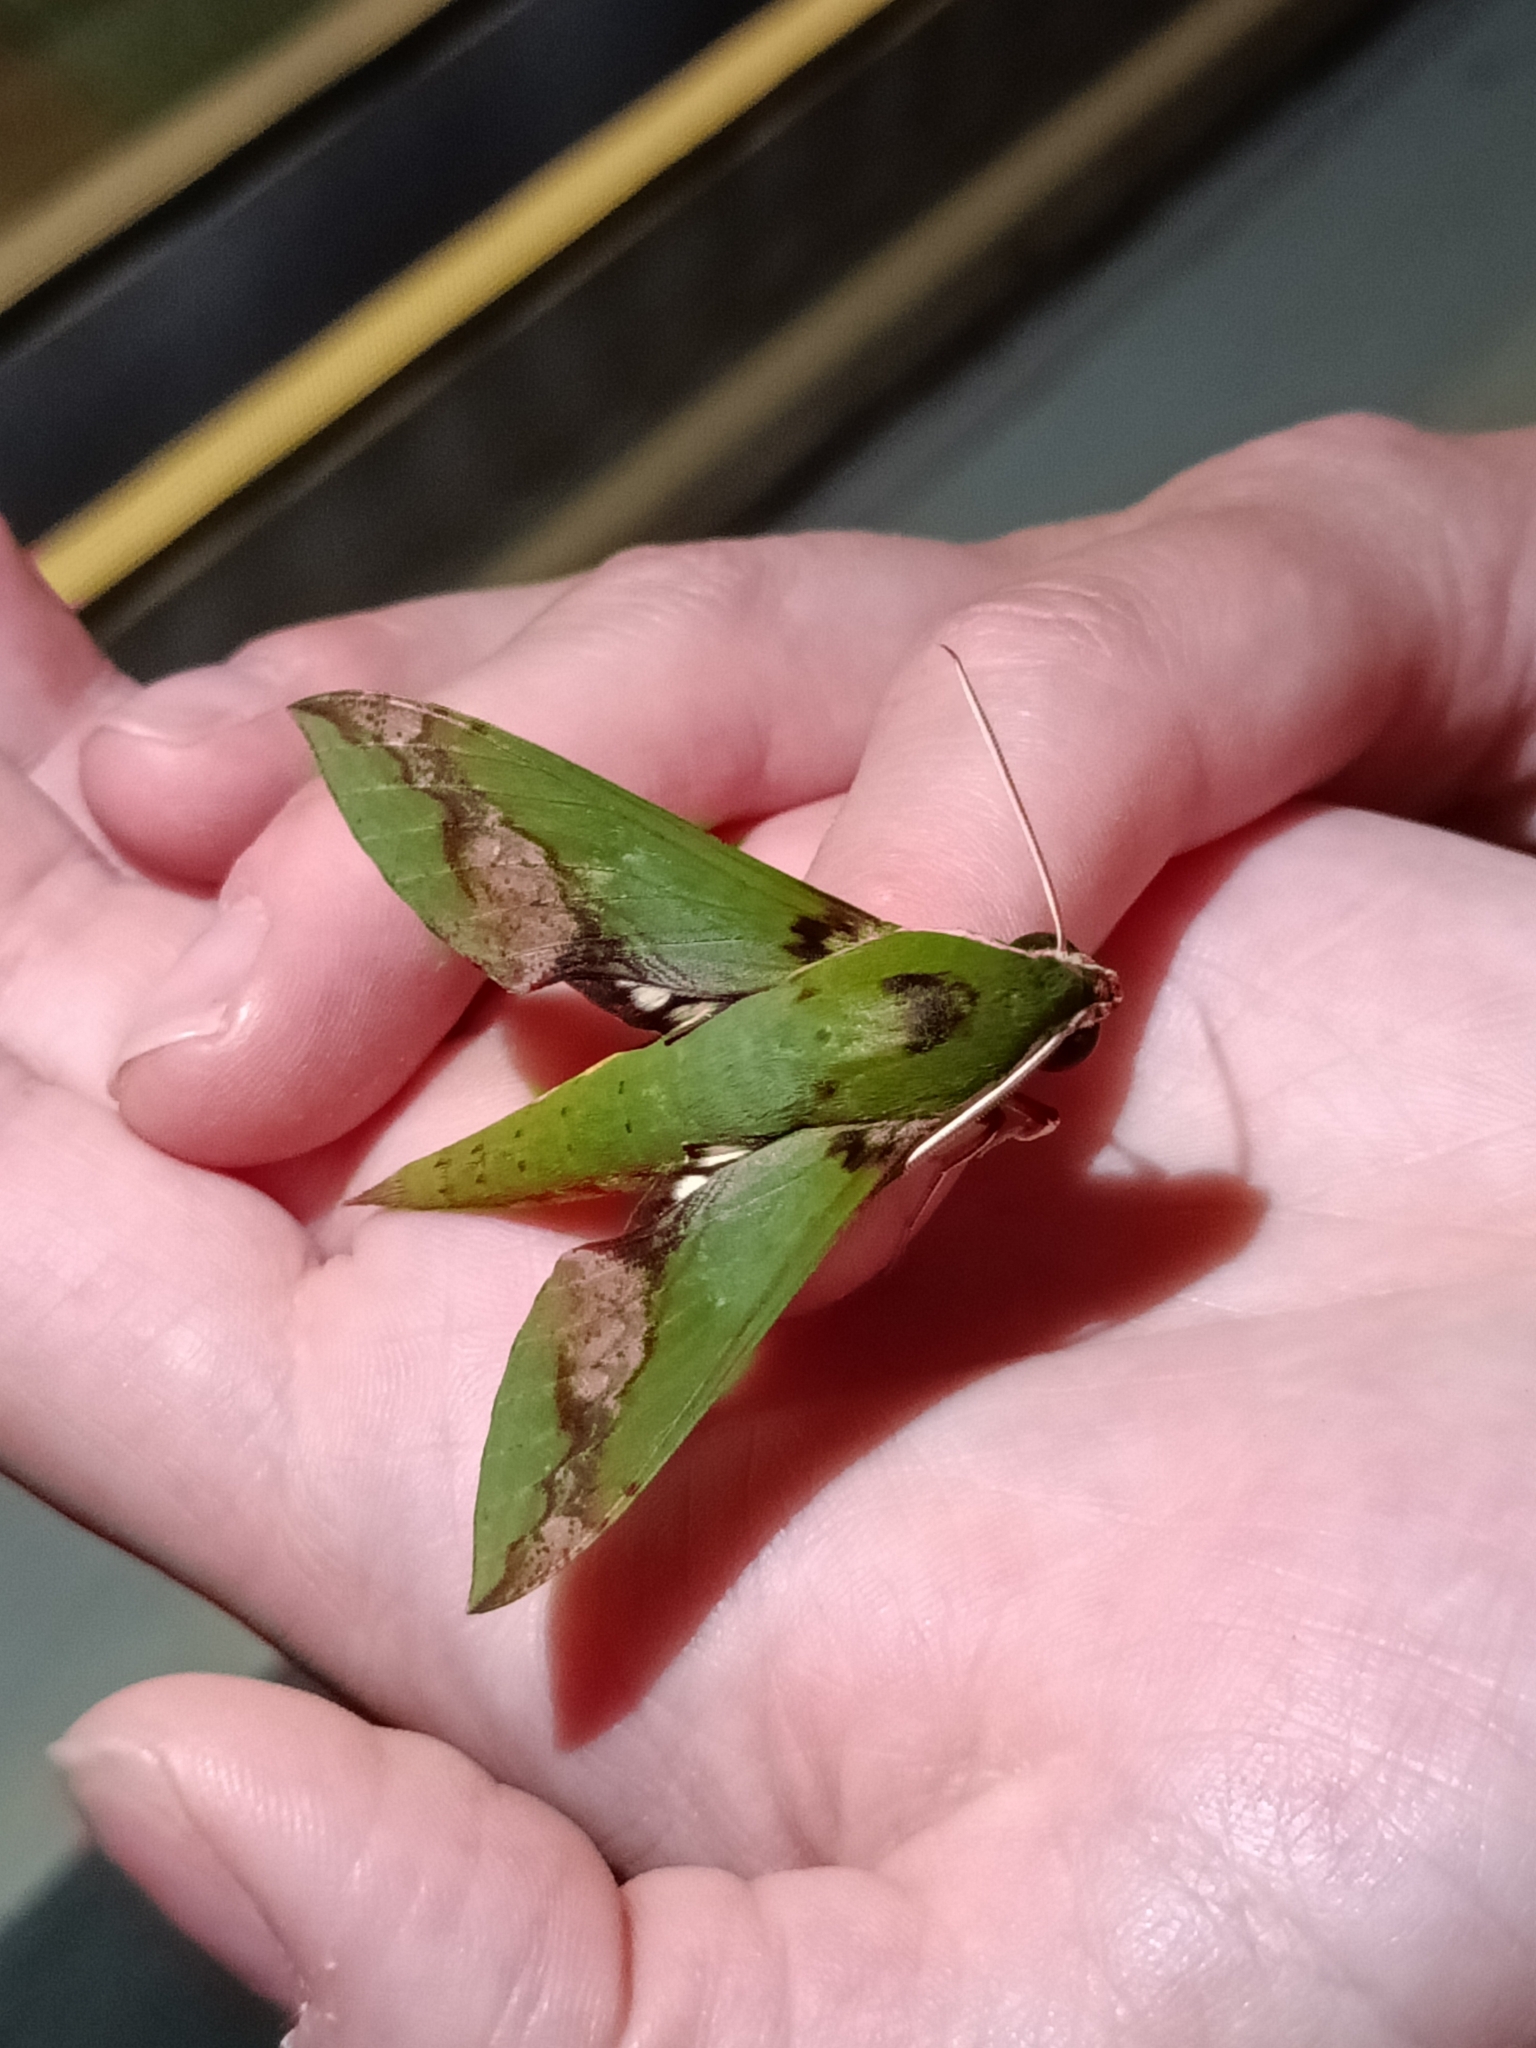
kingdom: Animalia
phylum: Arthropoda
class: Insecta
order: Lepidoptera
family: Sphingidae
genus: Xylophanes
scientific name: Xylophanes chiron
